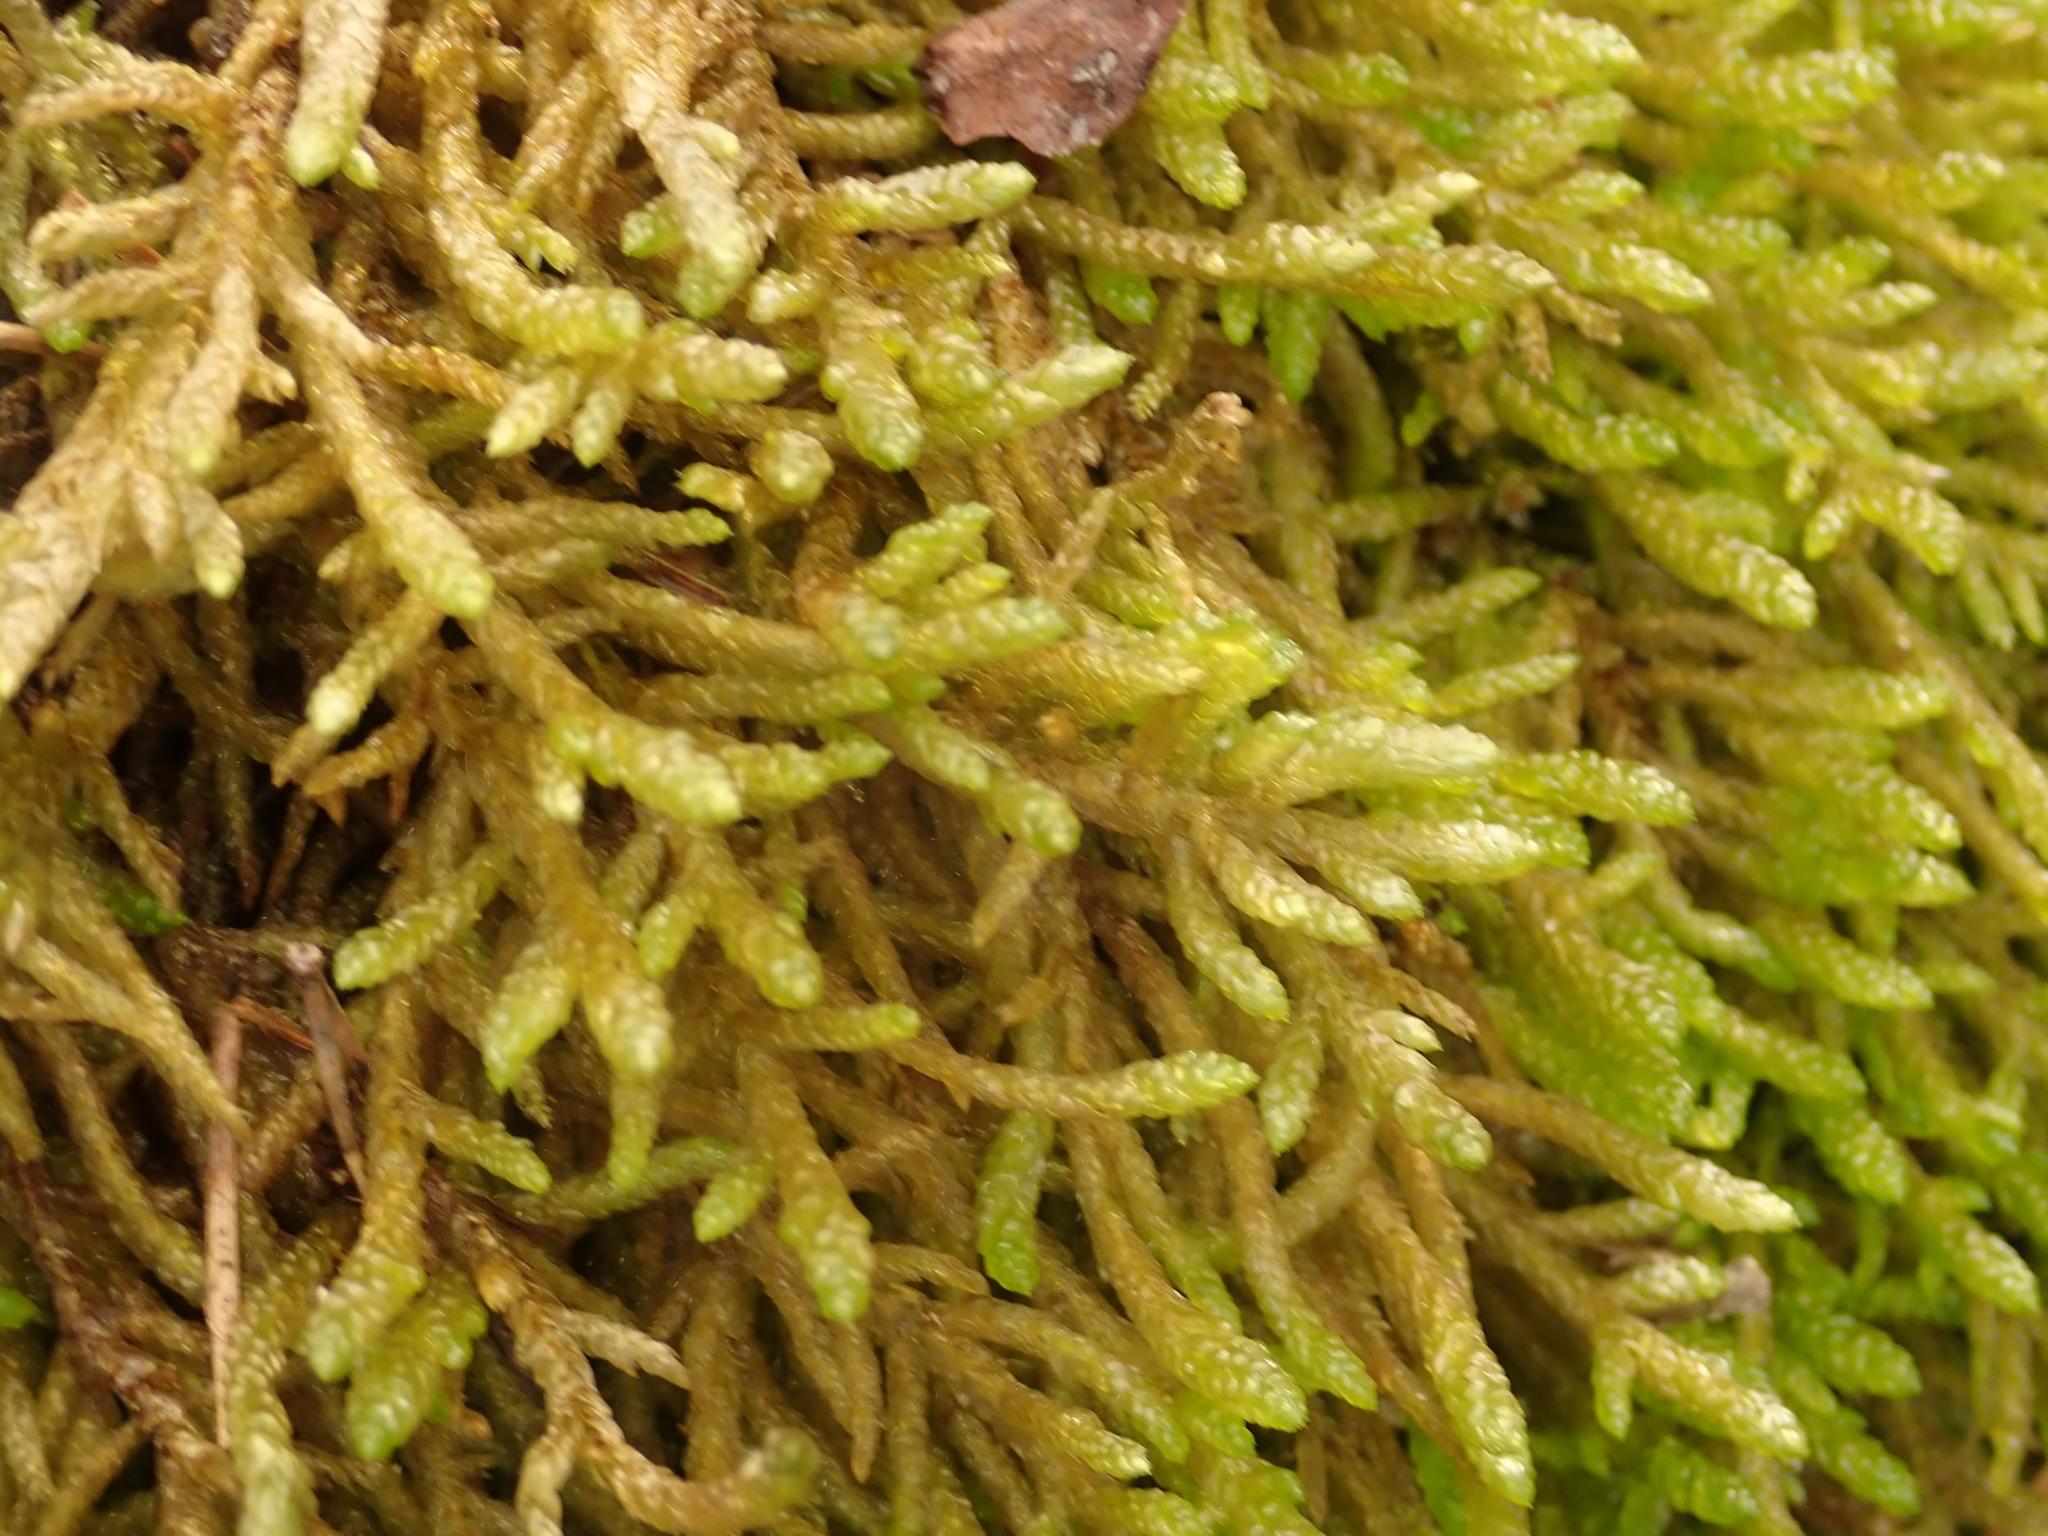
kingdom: Plantae
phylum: Bryophyta
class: Bryopsida
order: Hypnales
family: Brachytheciaceae
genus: Pseudoscleropodium
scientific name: Pseudoscleropodium purum
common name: Neat feather-moss
